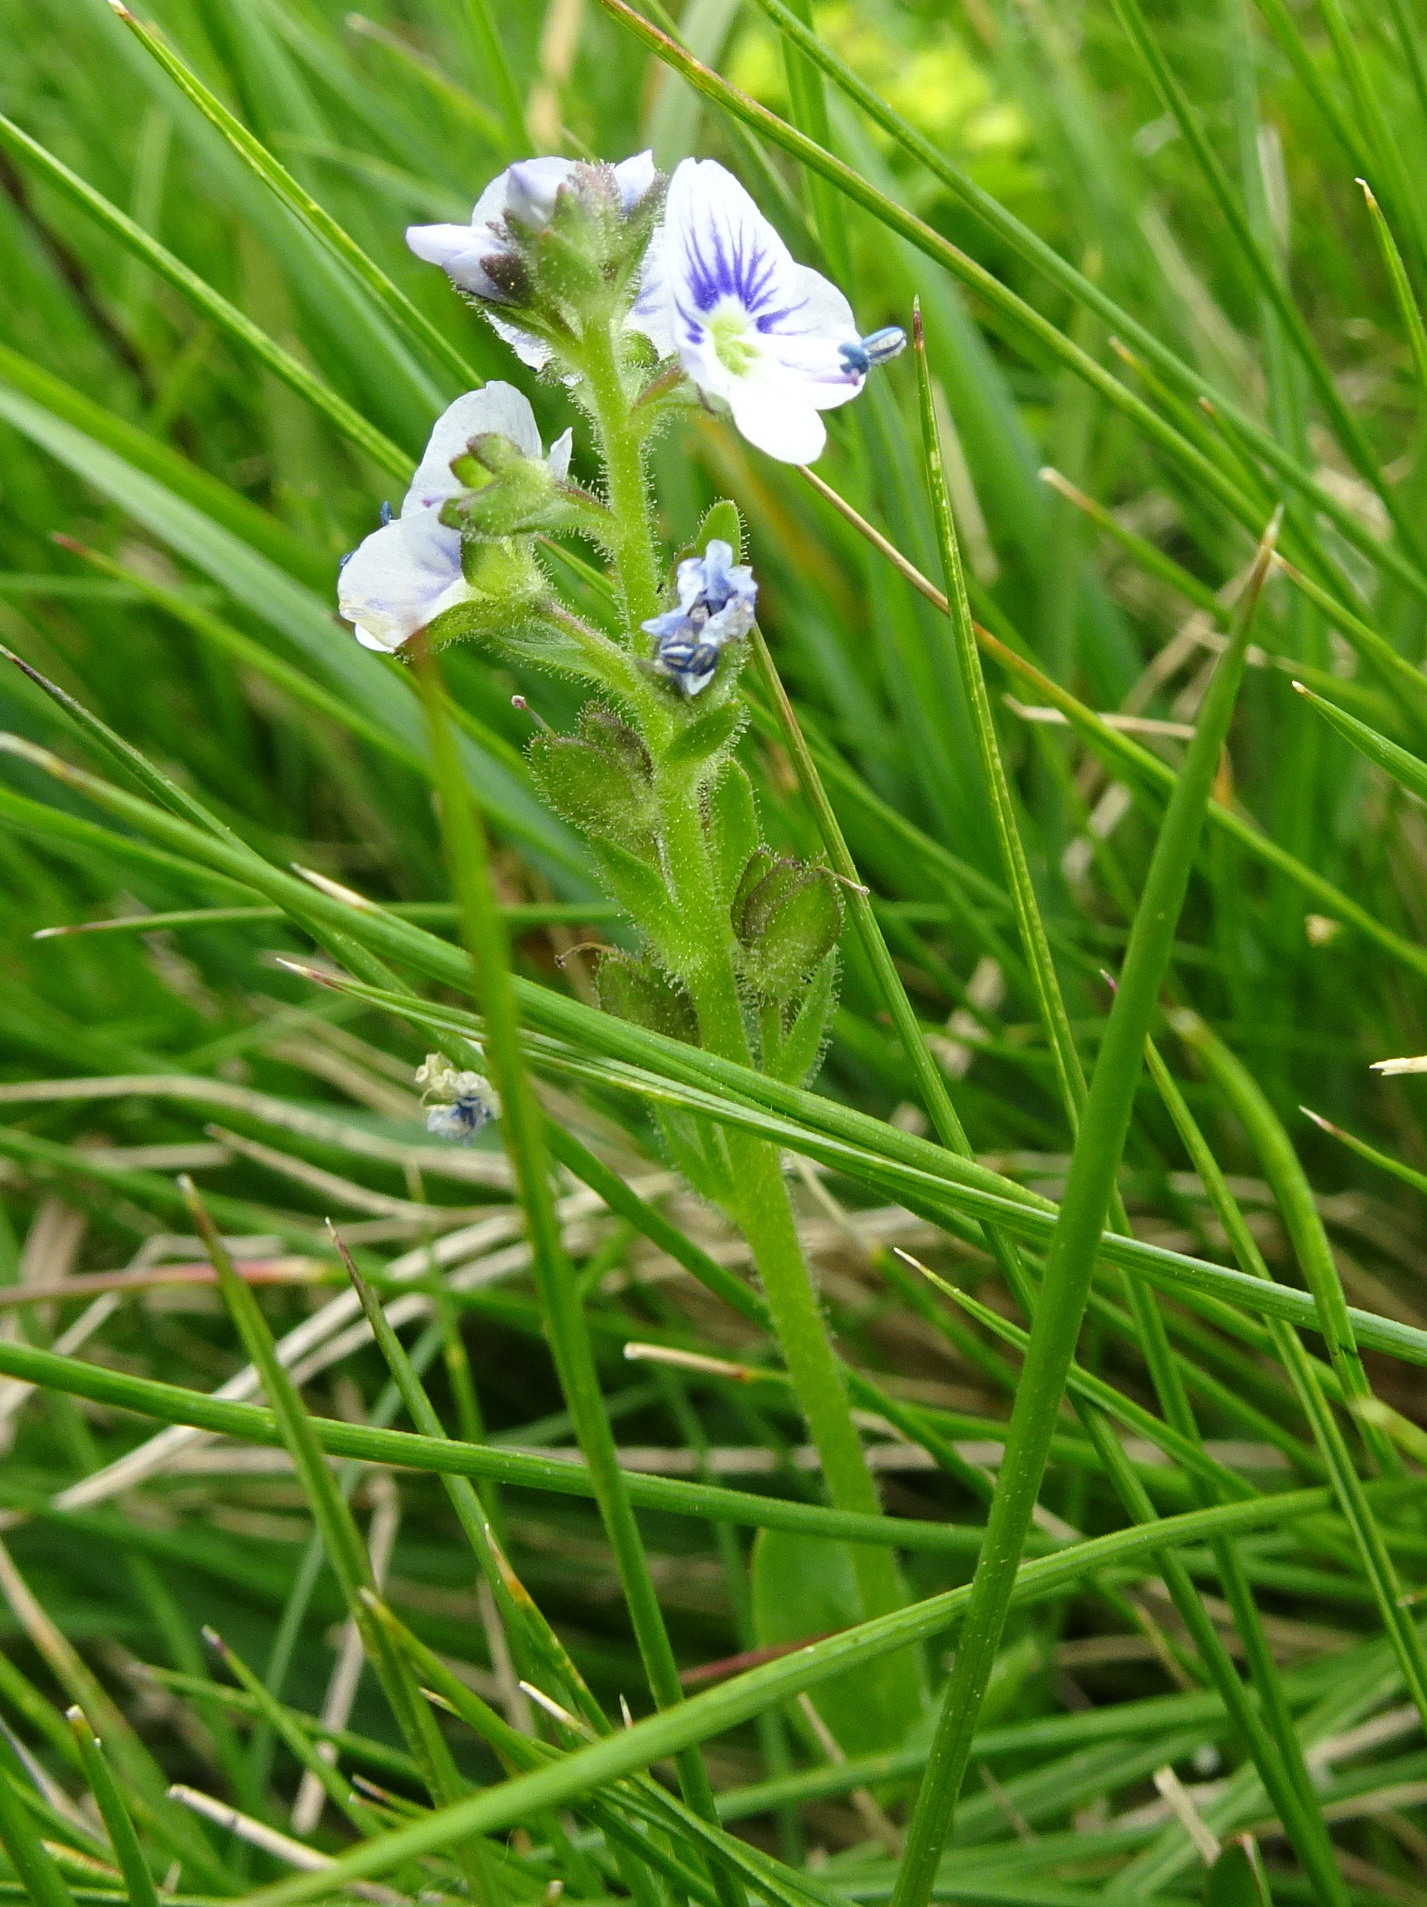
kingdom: Plantae
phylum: Tracheophyta
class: Magnoliopsida
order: Lamiales
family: Plantaginaceae
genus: Veronica
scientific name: Veronica serpyllifolia
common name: Thyme-leaved speedwell
